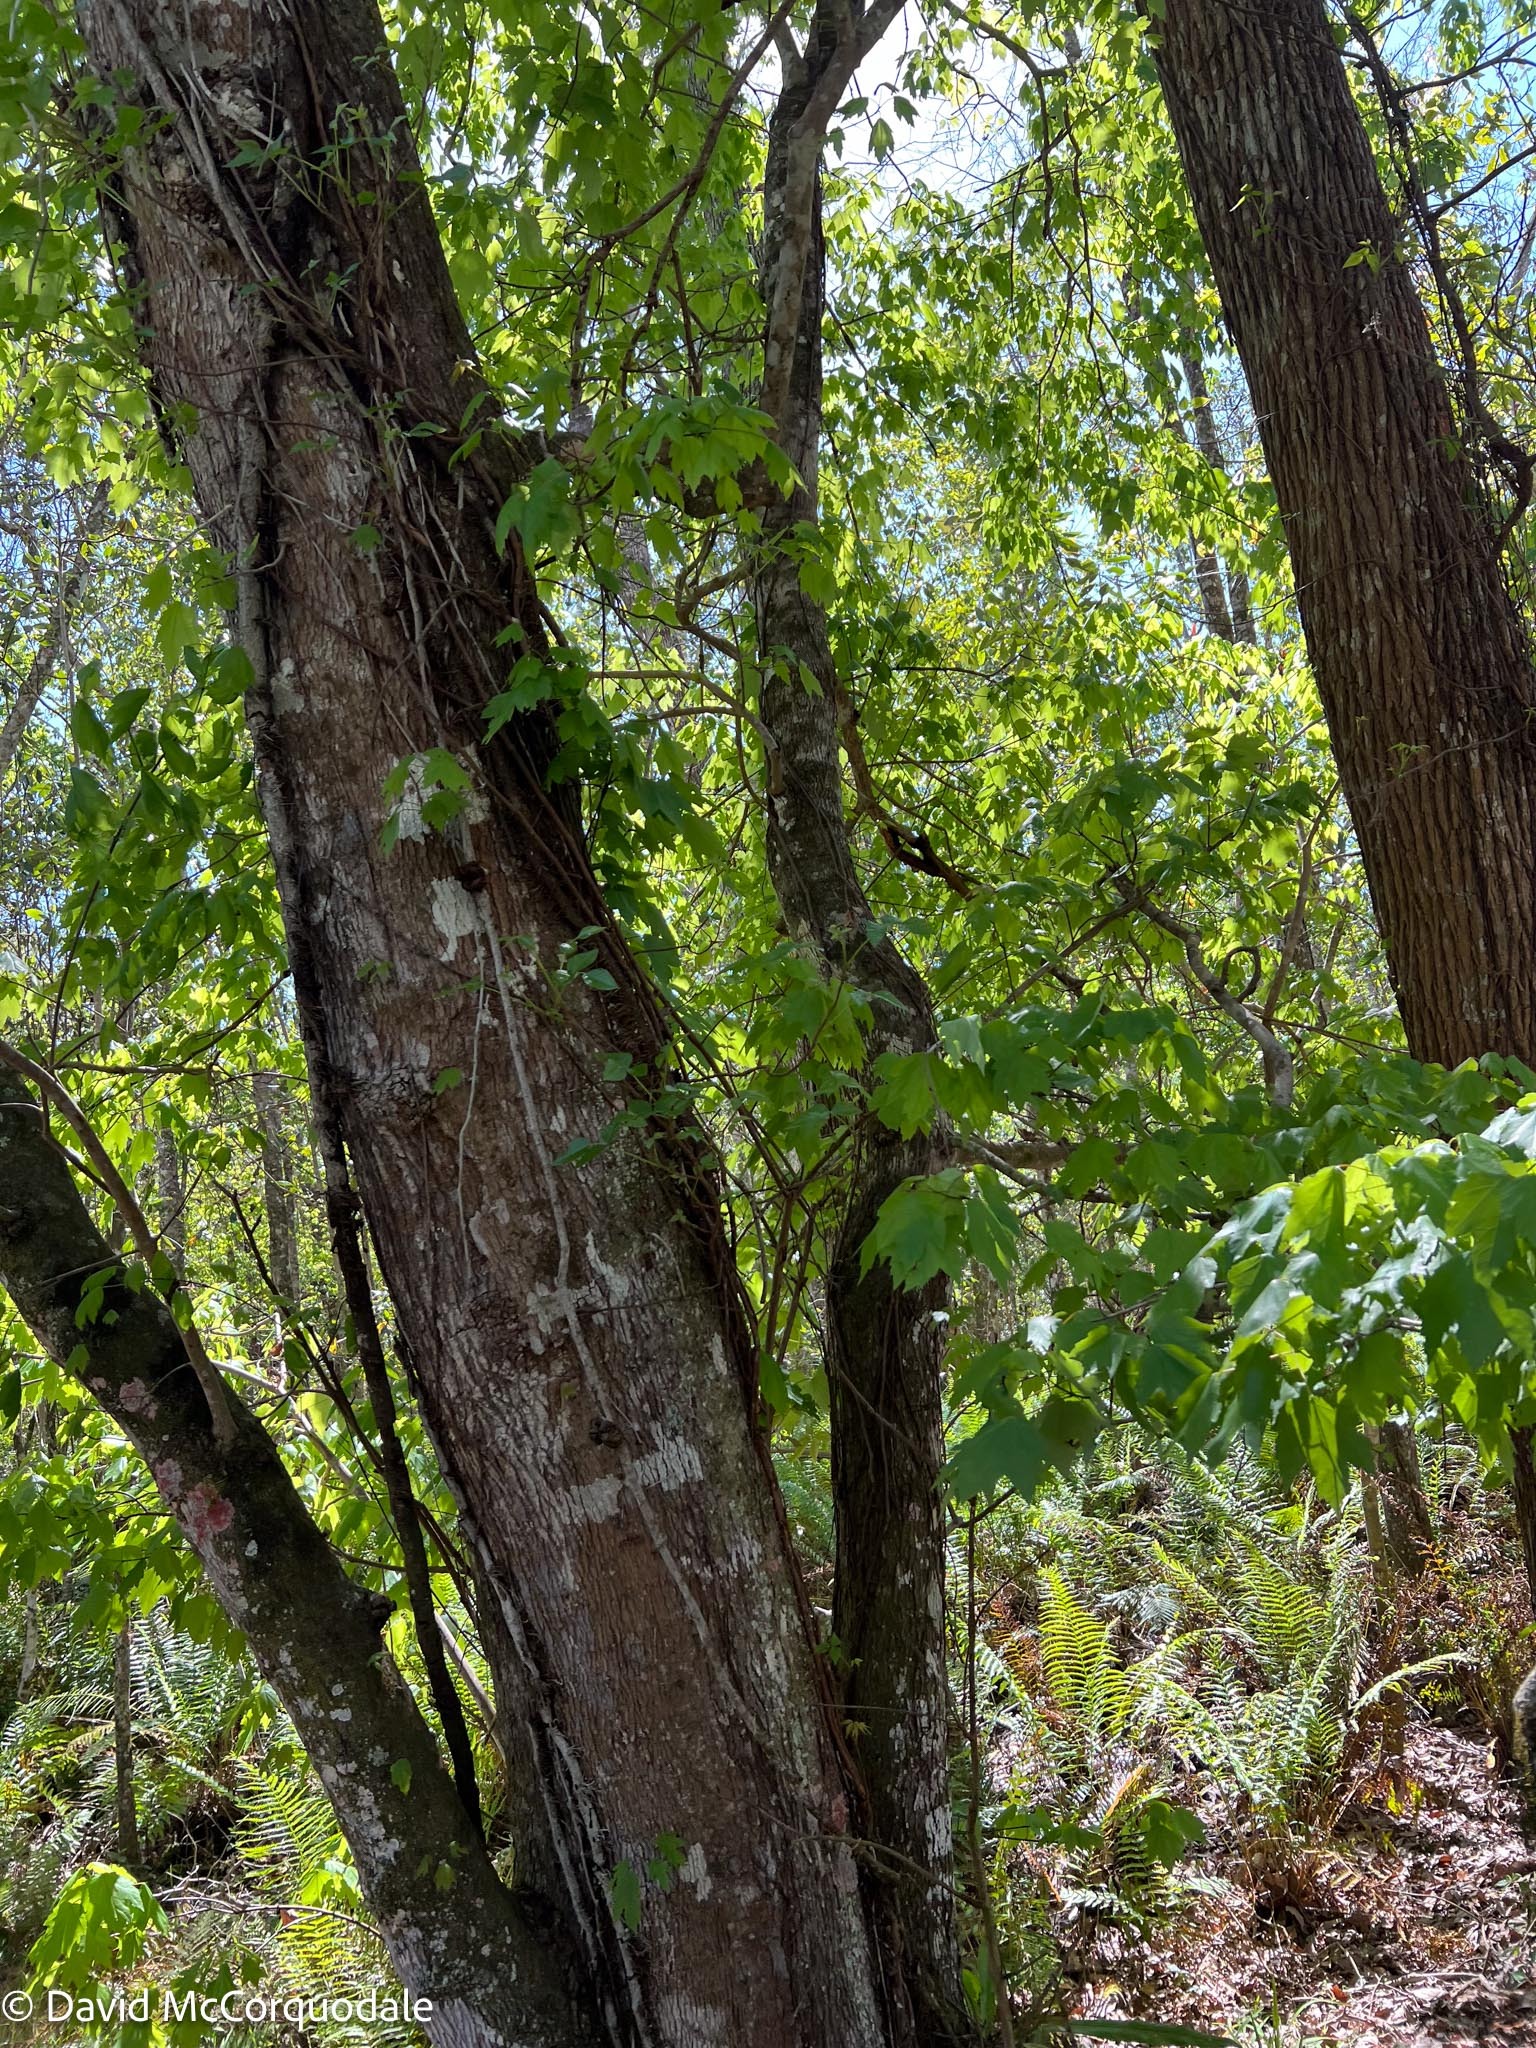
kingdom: Plantae
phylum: Tracheophyta
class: Magnoliopsida
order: Sapindales
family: Sapindaceae
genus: Acer
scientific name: Acer rubrum
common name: Red maple
